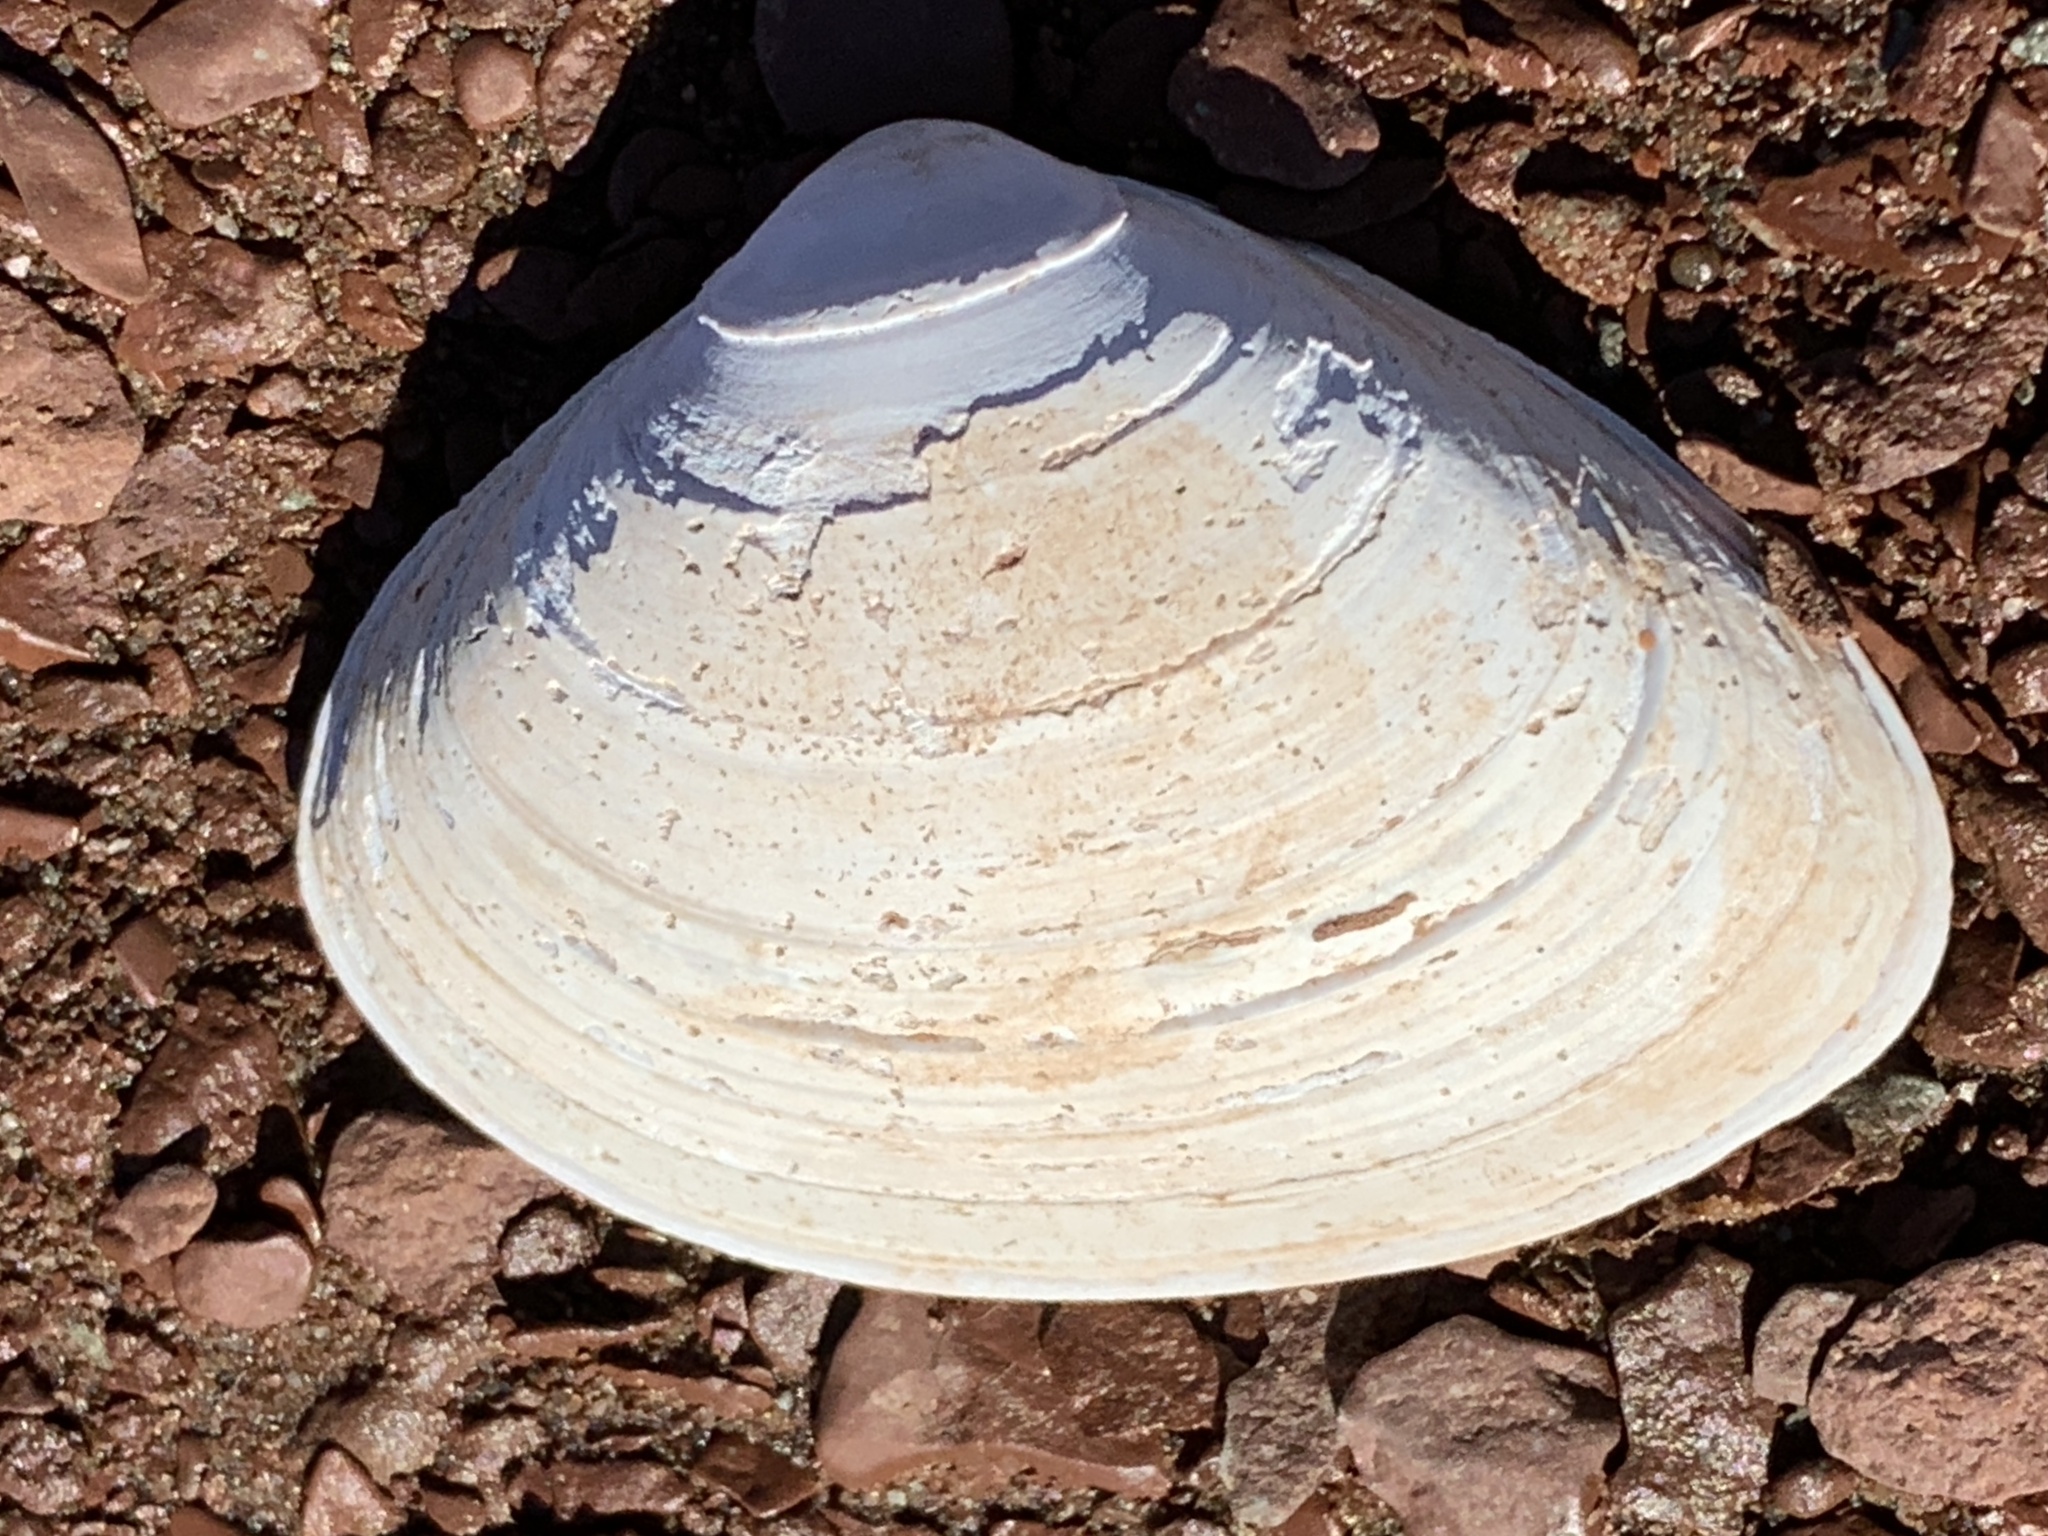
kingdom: Animalia
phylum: Mollusca
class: Bivalvia
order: Venerida
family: Mactridae
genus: Spisula
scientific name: Spisula solidissima
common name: Atlantic surf clam
